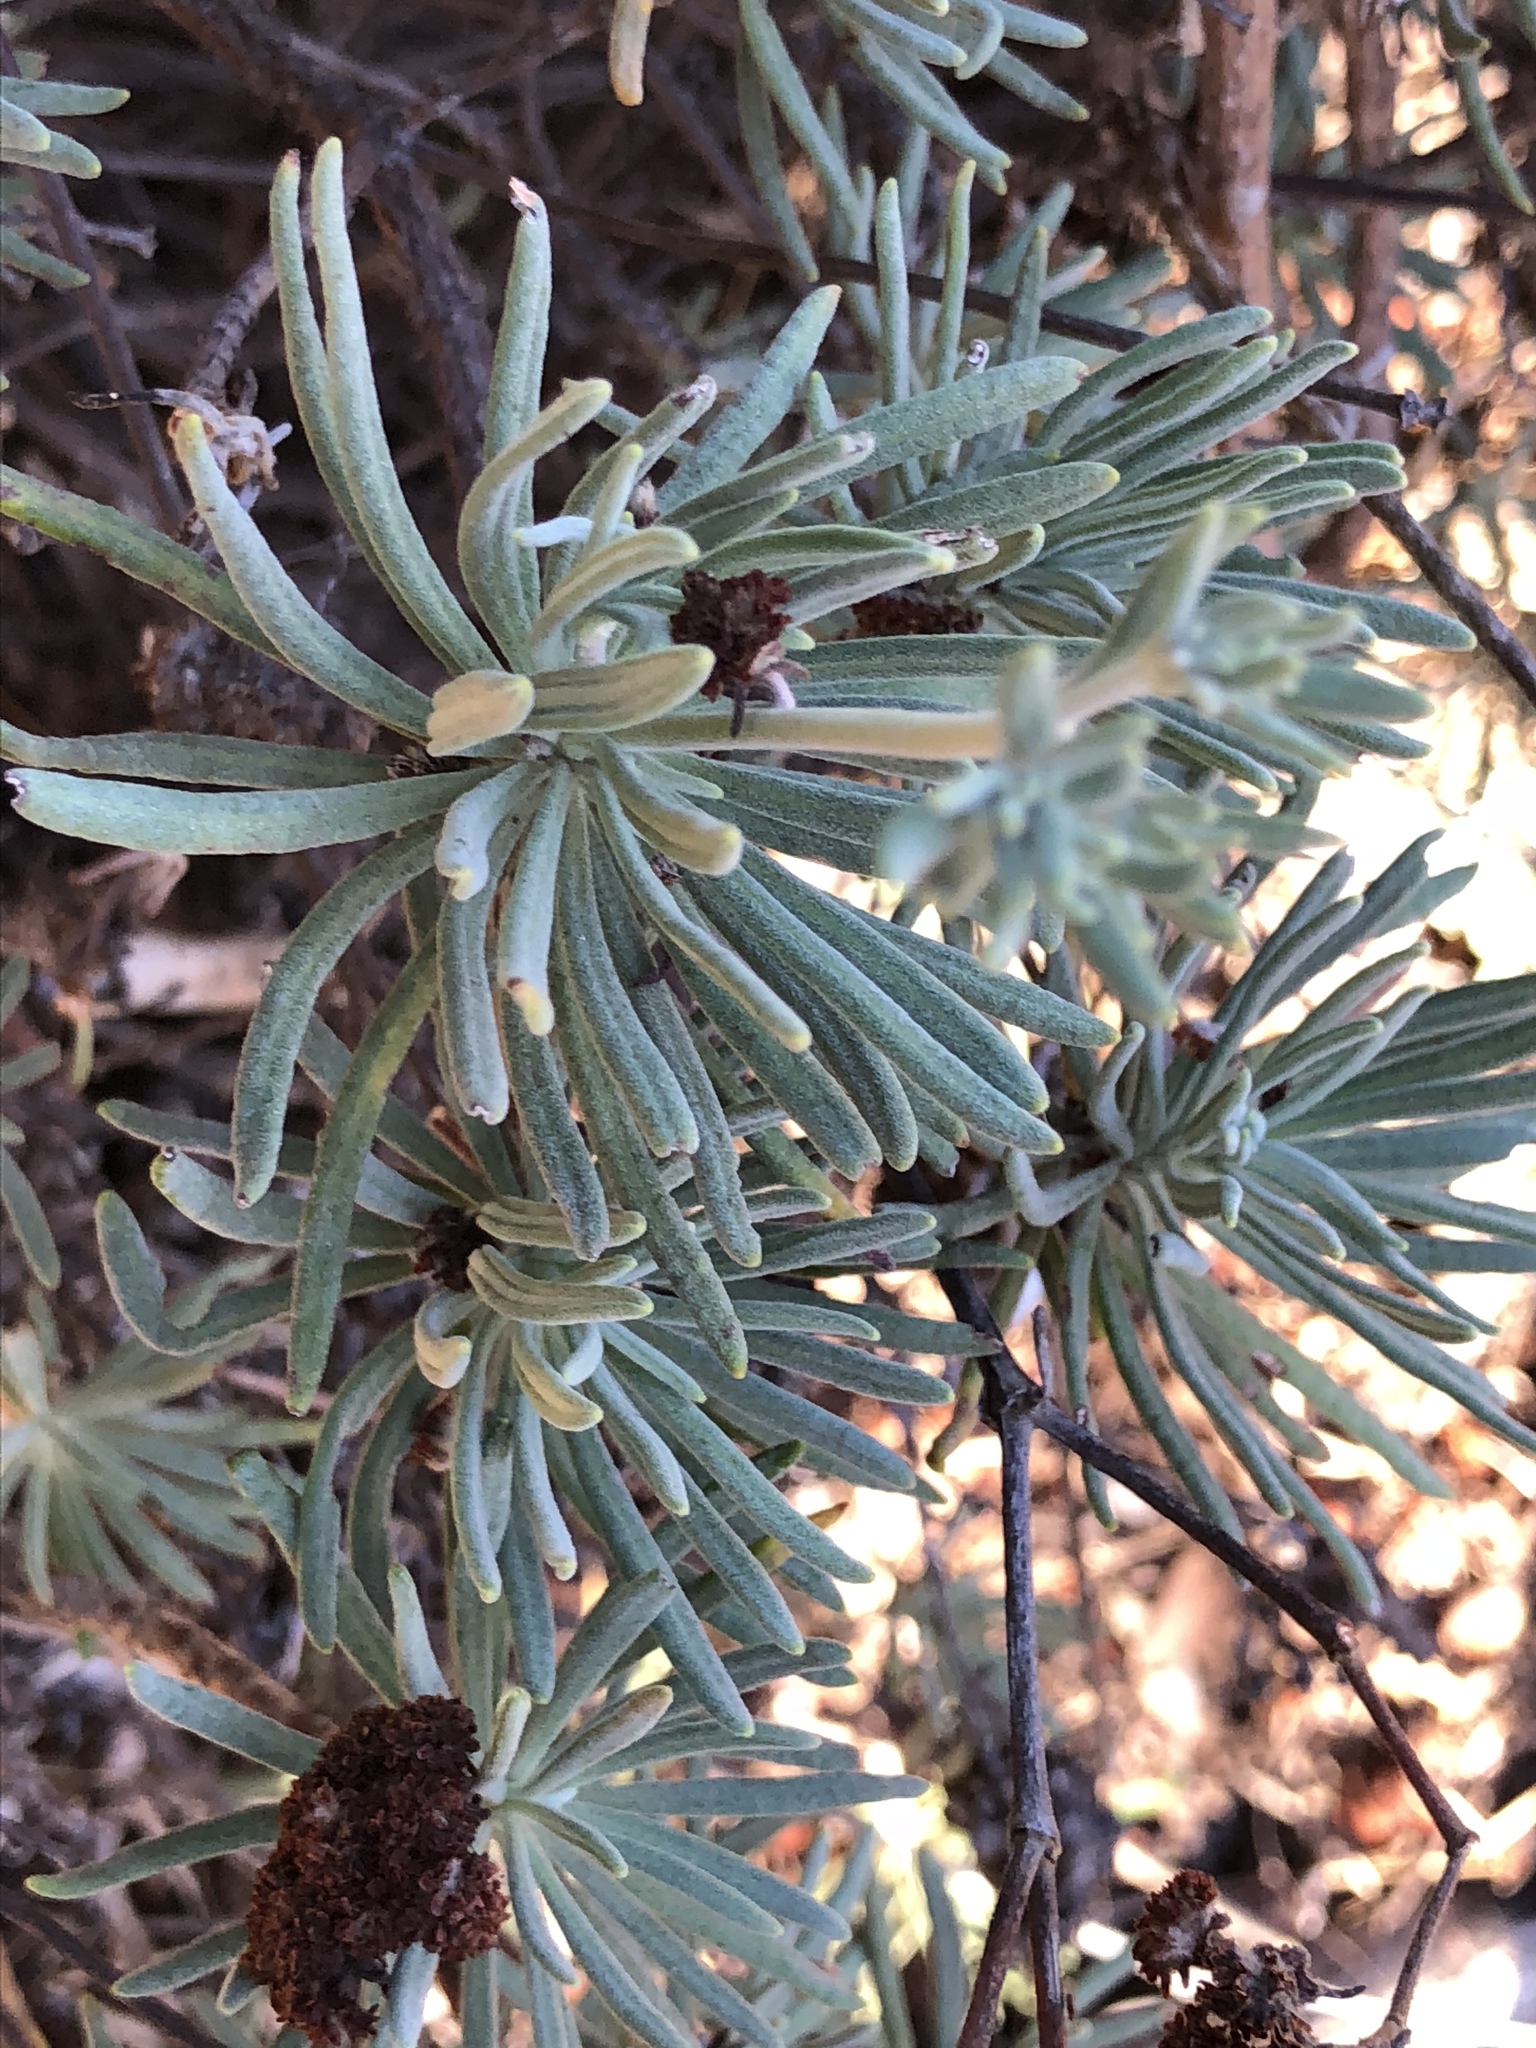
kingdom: Plantae
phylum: Tracheophyta
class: Magnoliopsida
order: Caryophyllales
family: Polygonaceae
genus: Eriogonum
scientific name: Eriogonum arborescens
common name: Island buckwheat
